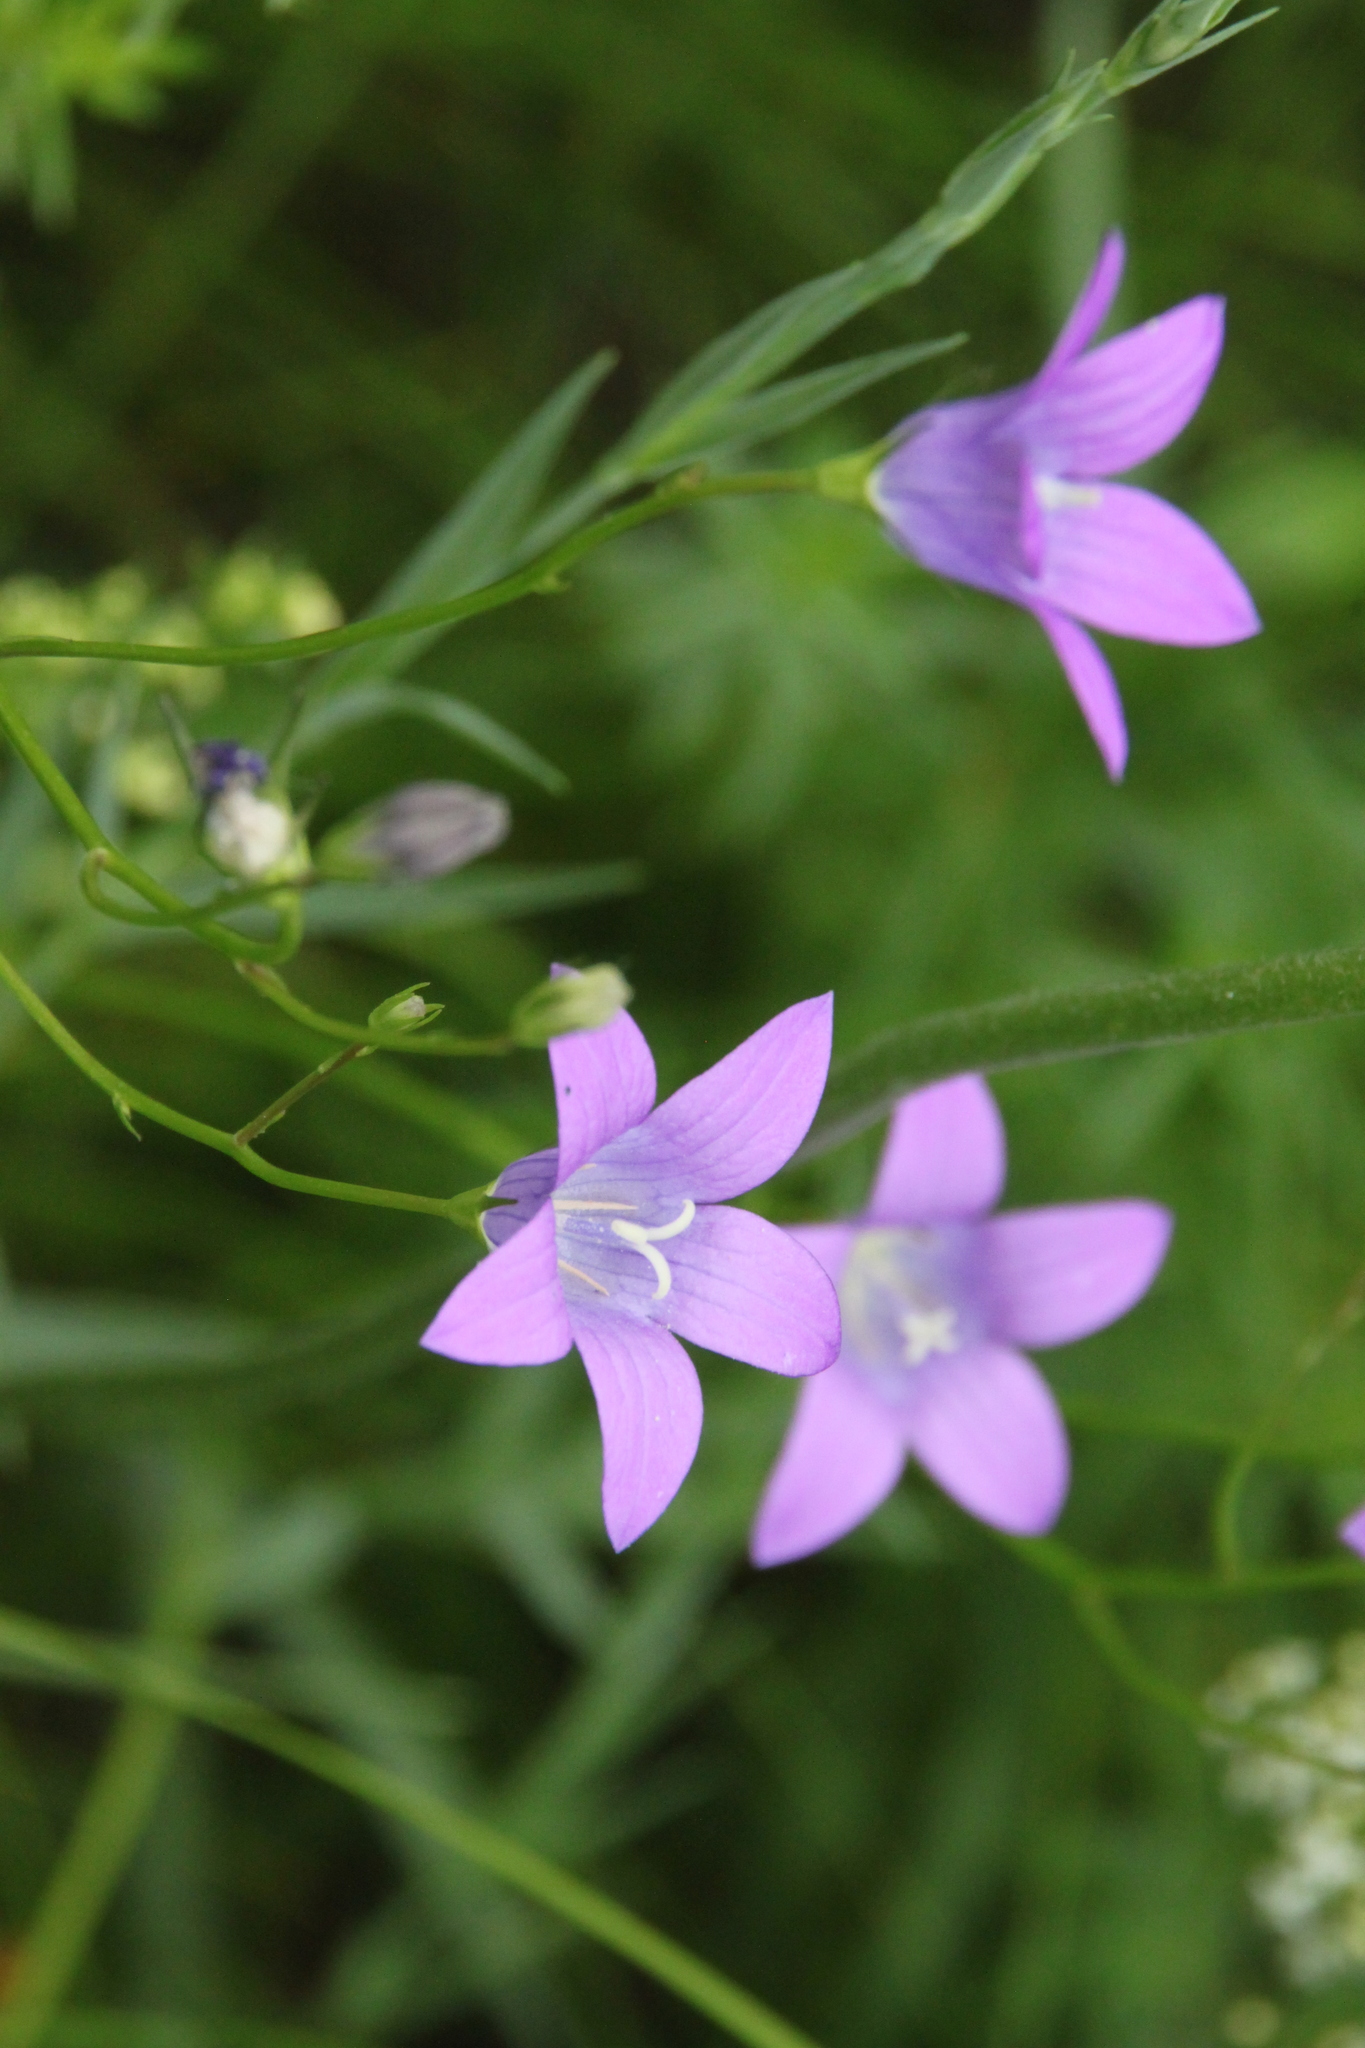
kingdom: Plantae
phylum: Tracheophyta
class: Magnoliopsida
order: Asterales
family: Campanulaceae
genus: Campanula
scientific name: Campanula patula
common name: Spreading bellflower
